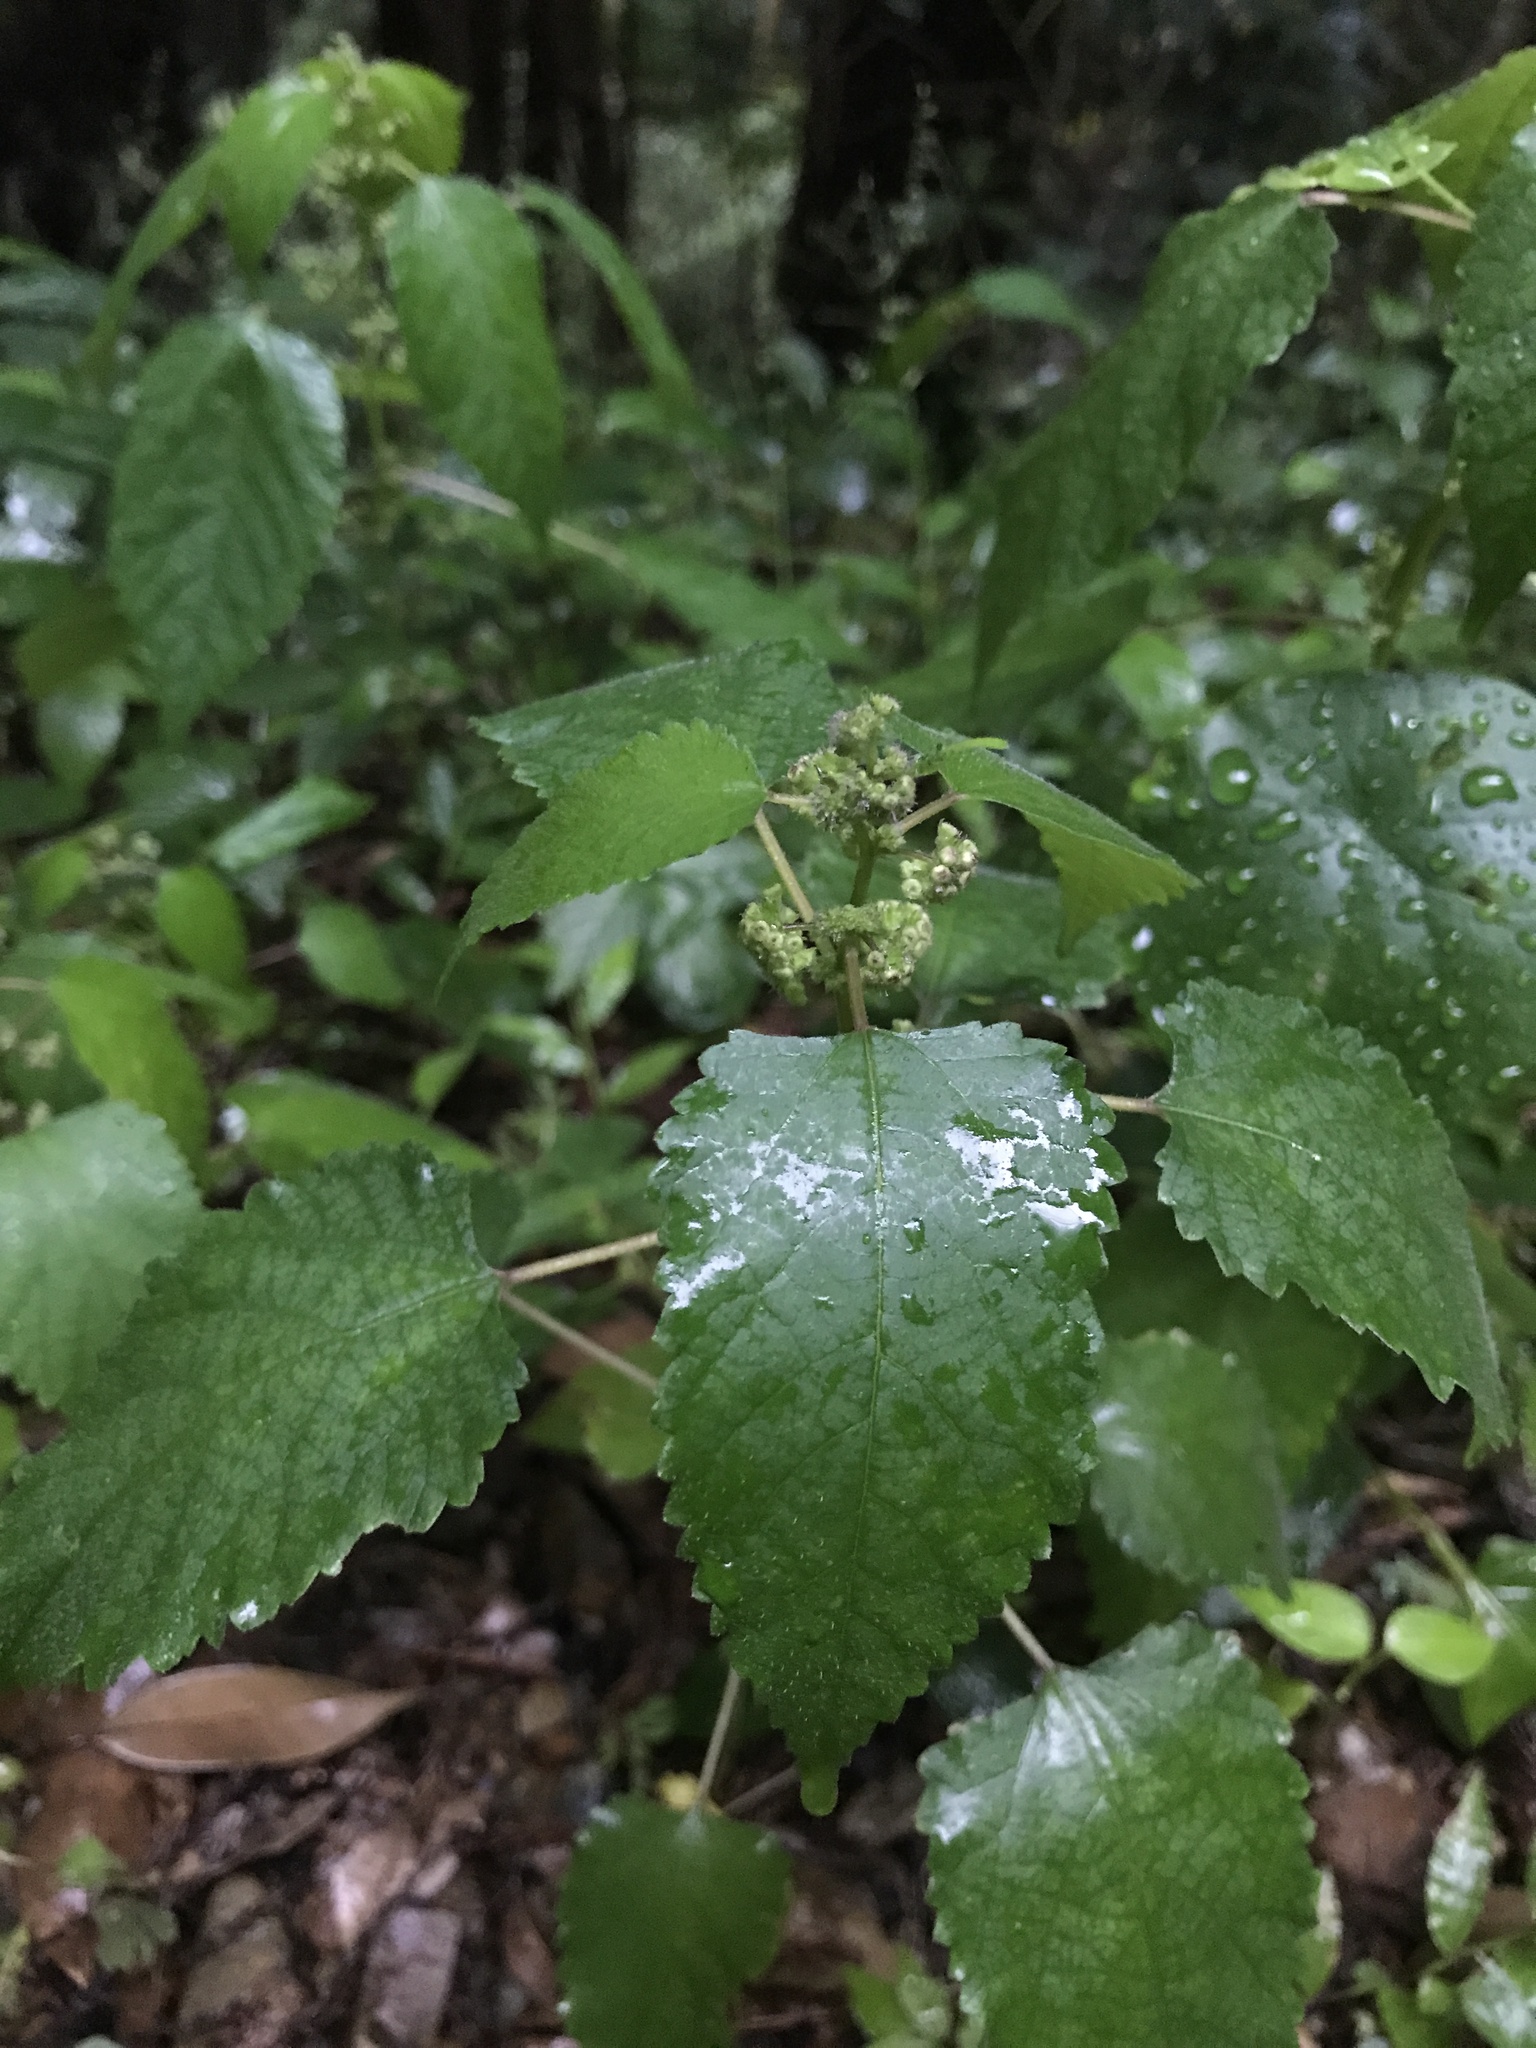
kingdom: Plantae
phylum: Tracheophyta
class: Magnoliopsida
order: Rosales
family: Moraceae
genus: Fatoua
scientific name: Fatoua villosa
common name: Hairy crabweed
